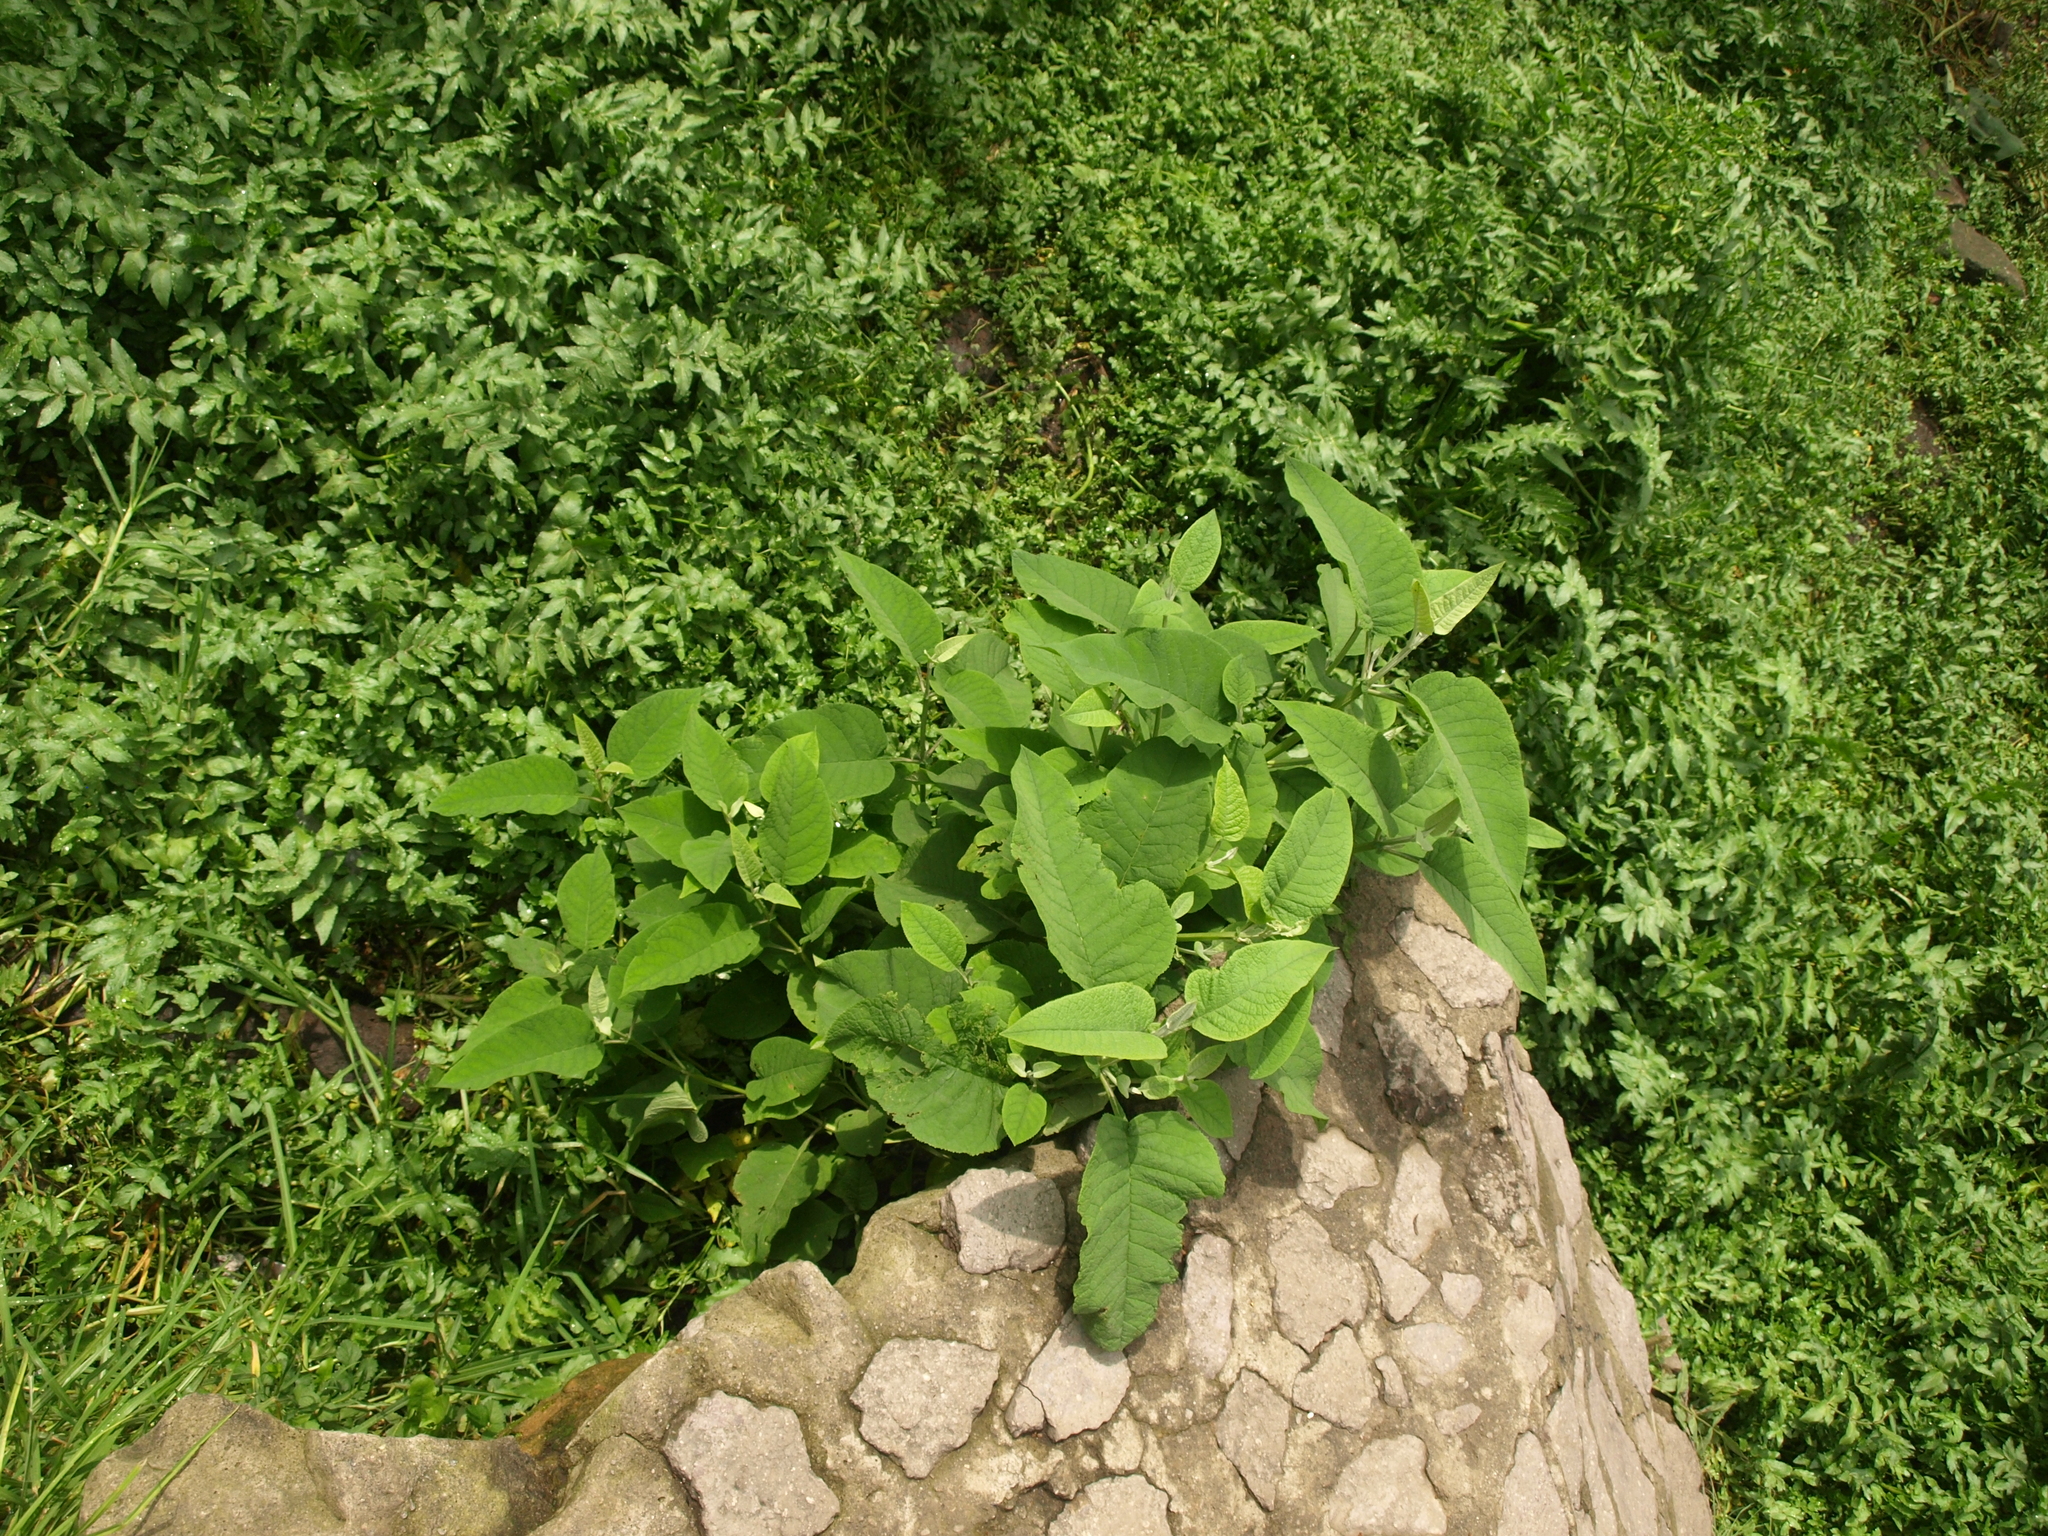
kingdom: Plantae
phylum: Tracheophyta
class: Magnoliopsida
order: Lamiales
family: Scrophulariaceae
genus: Buddleja
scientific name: Buddleja cordata
